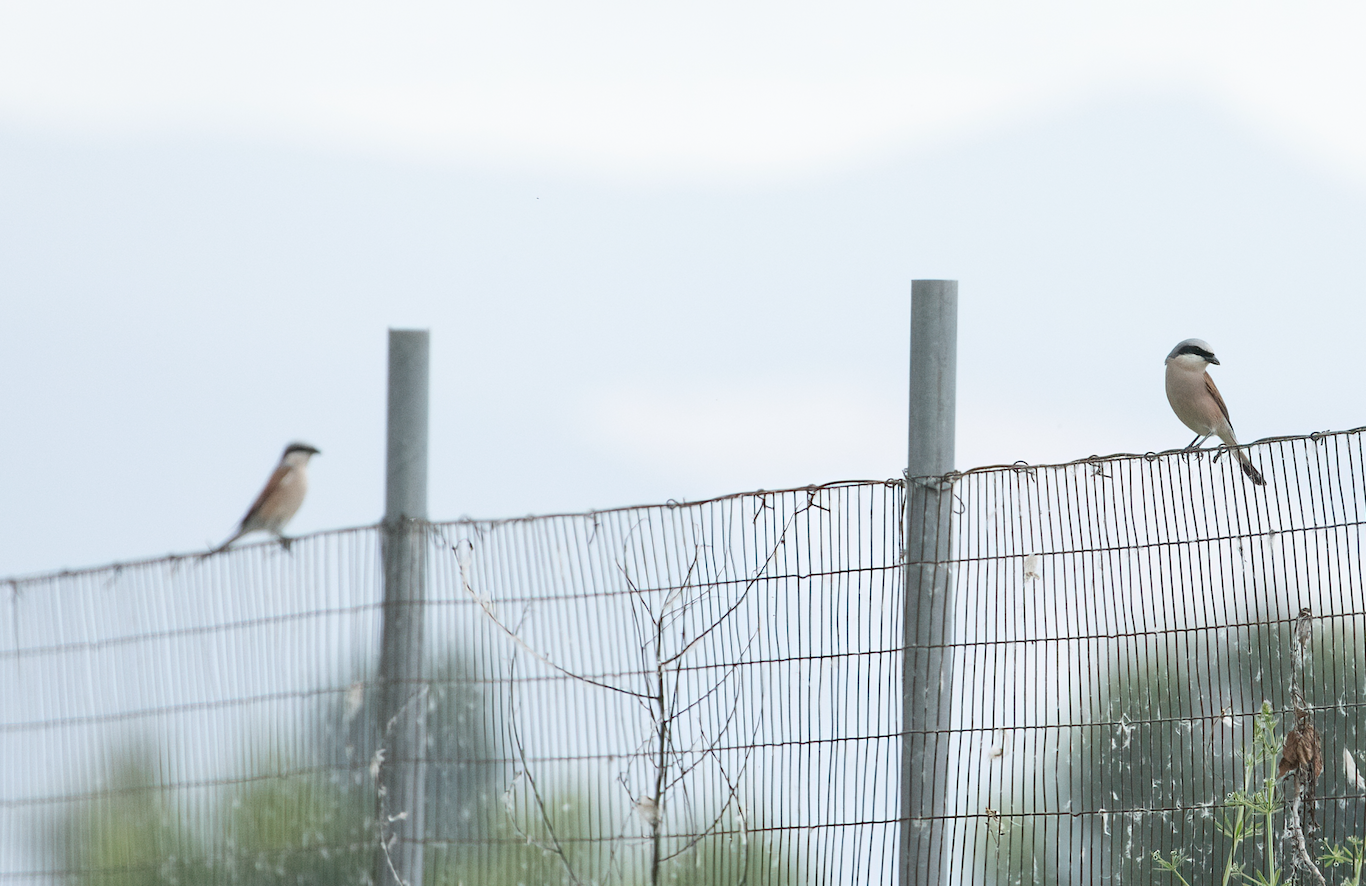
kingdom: Animalia
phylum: Chordata
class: Aves
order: Passeriformes
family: Laniidae
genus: Lanius
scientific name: Lanius collurio
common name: Red-backed shrike
